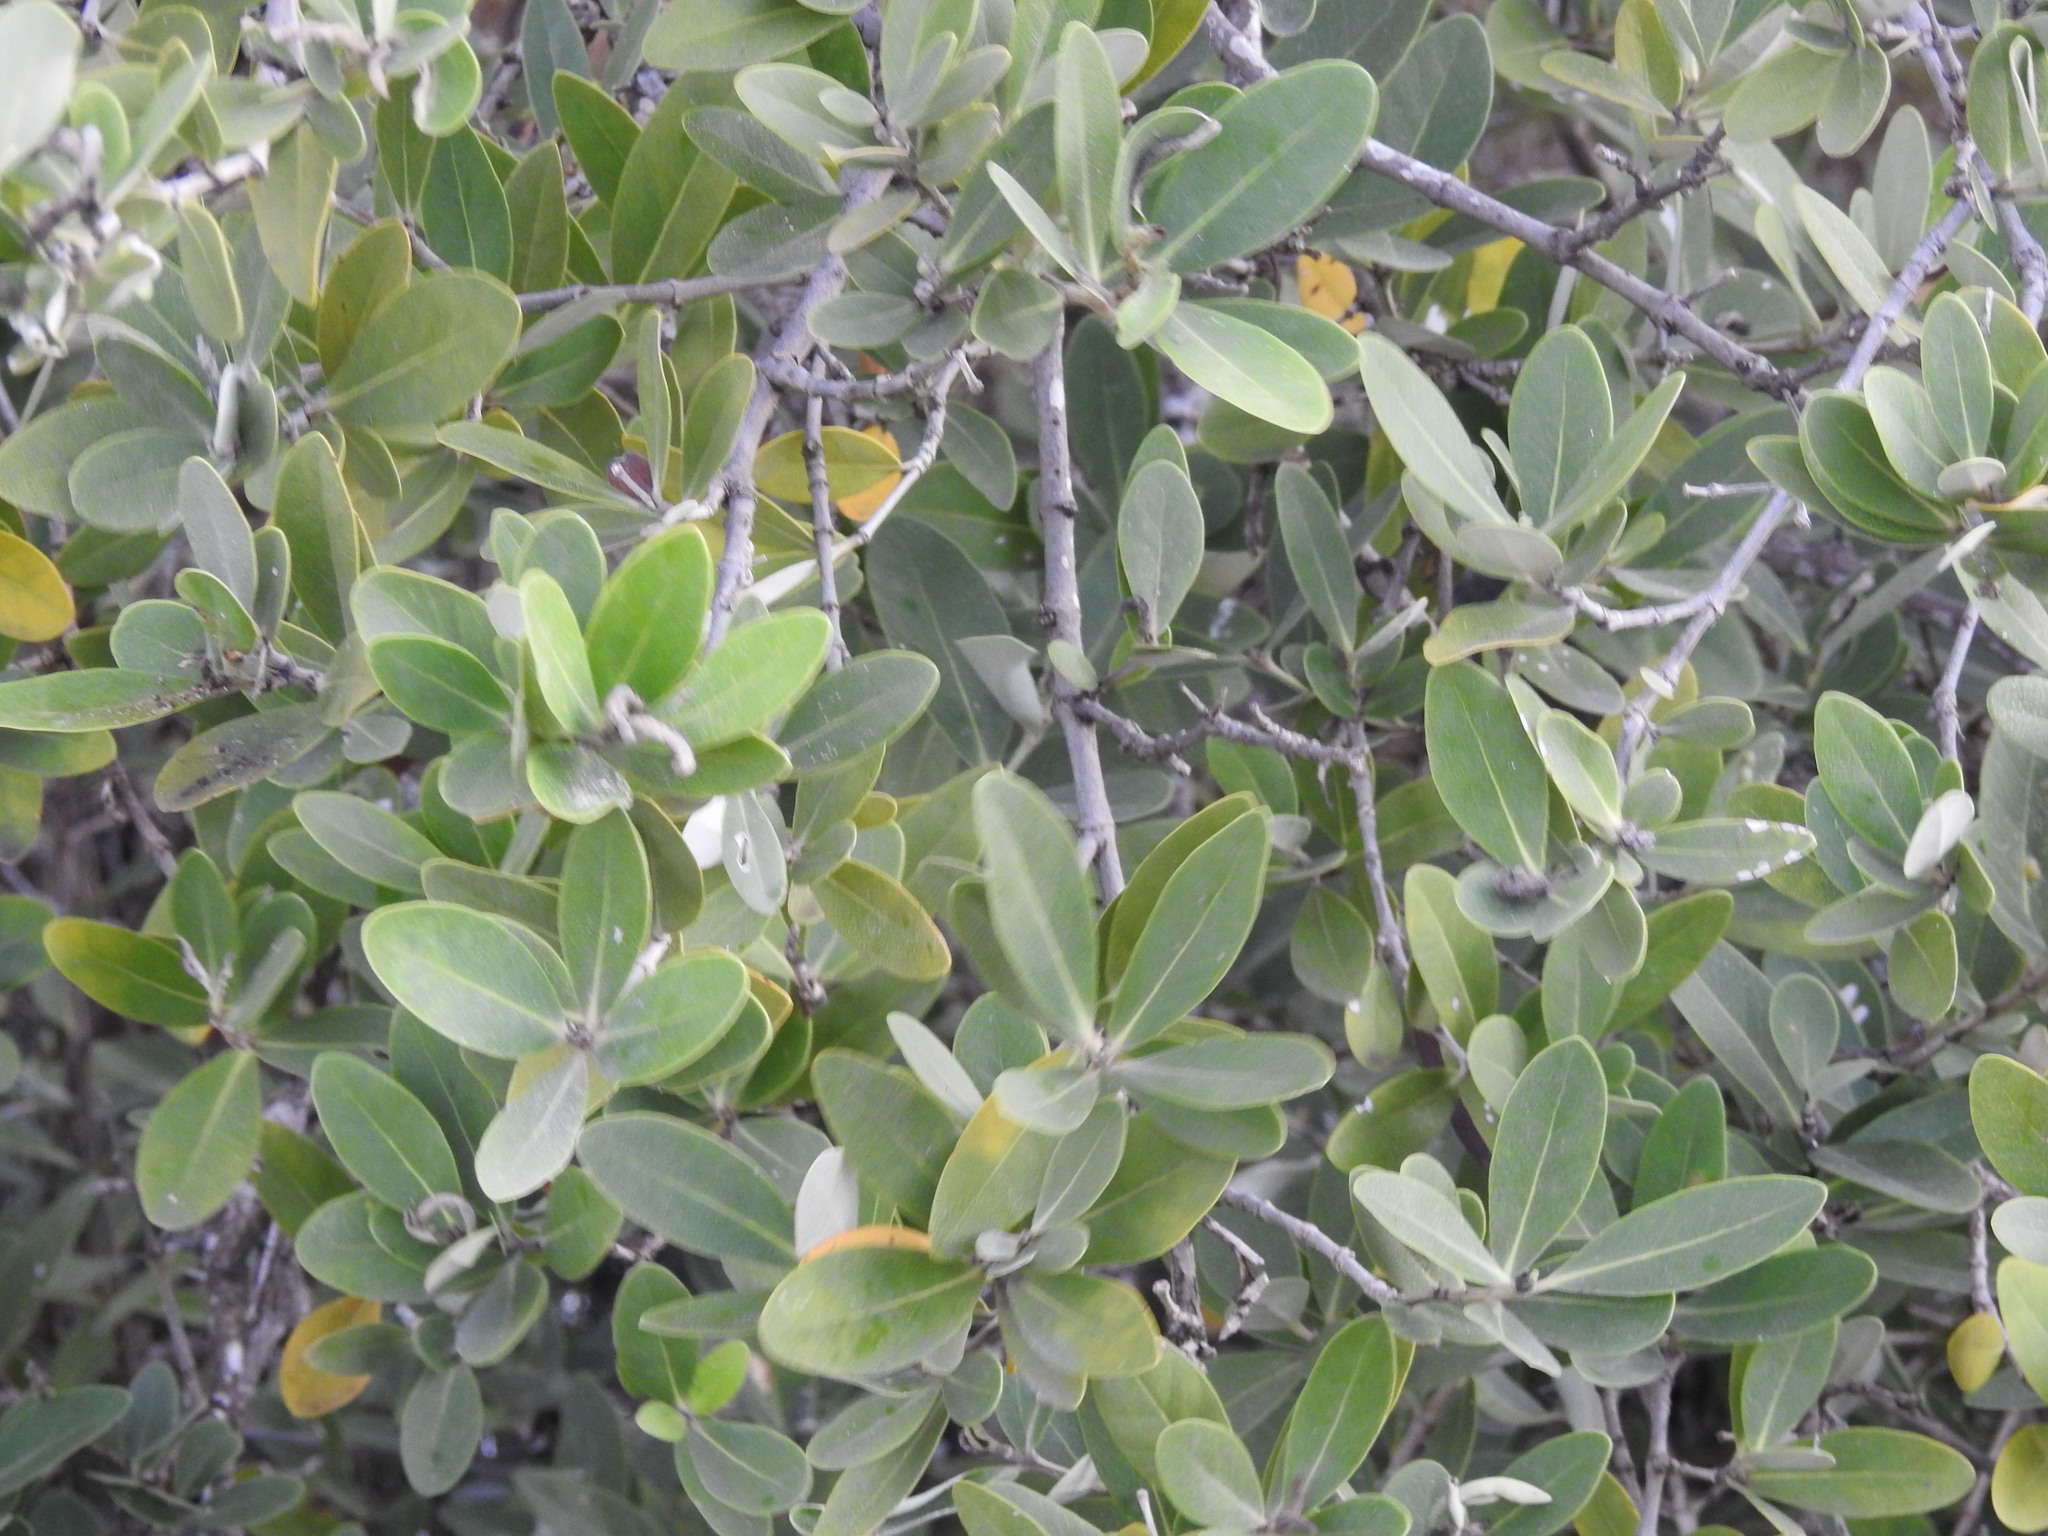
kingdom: Plantae
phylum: Tracheophyta
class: Magnoliopsida
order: Lamiales
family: Acanthaceae
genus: Avicennia
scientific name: Avicennia germinans
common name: Black mangrove
